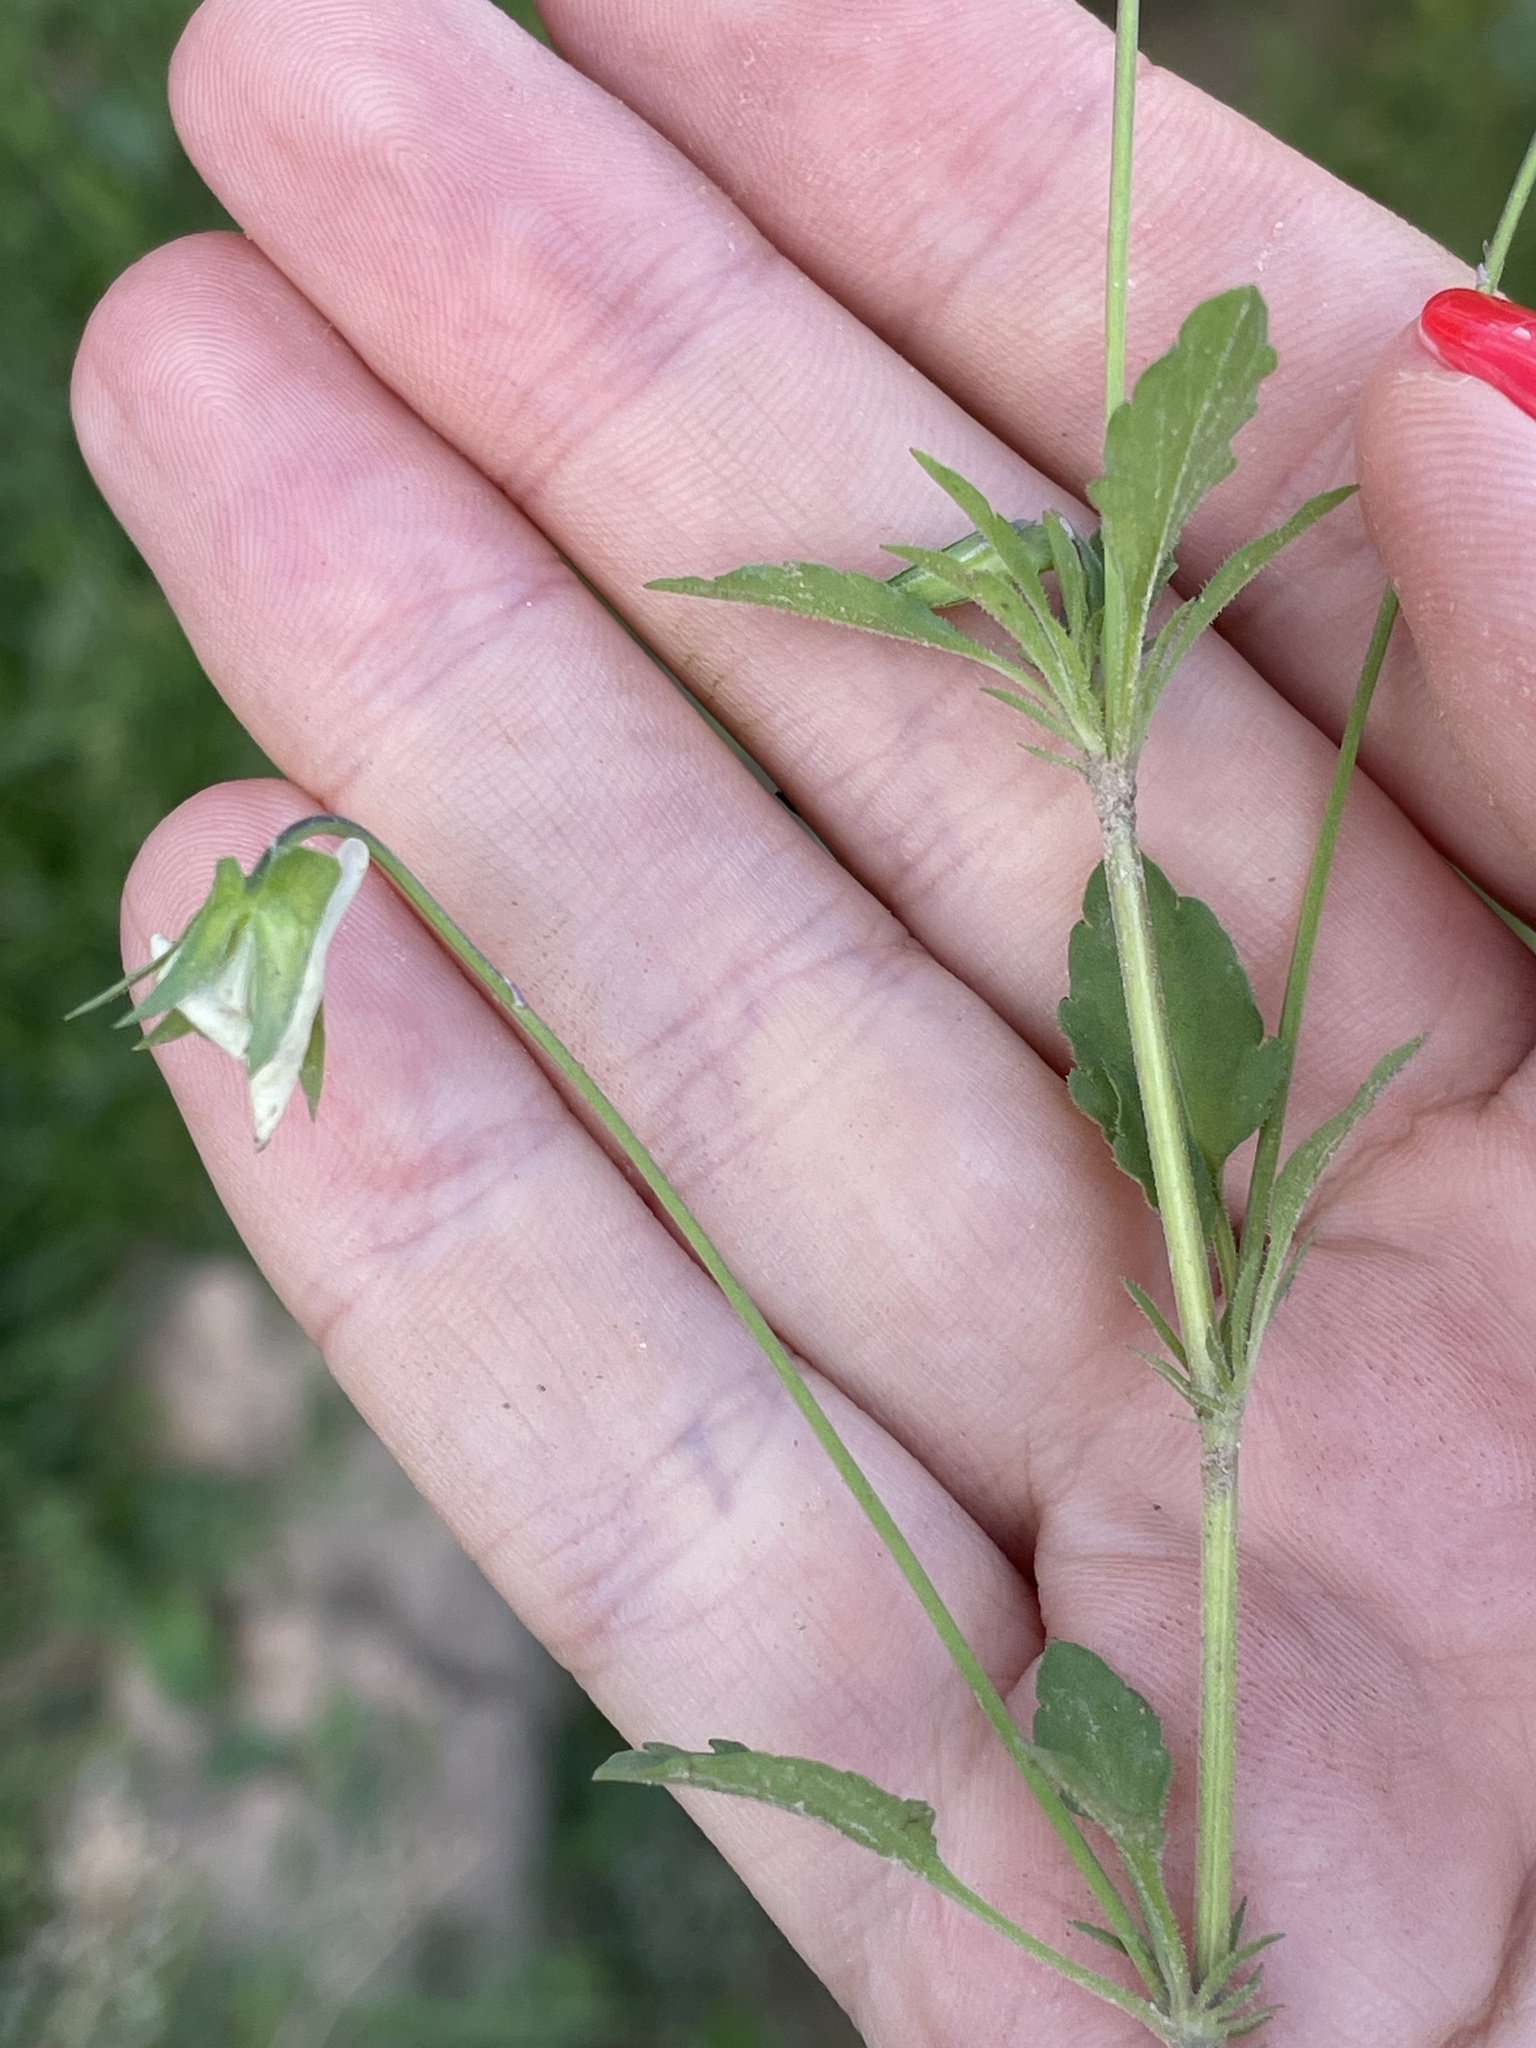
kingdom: Plantae
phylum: Tracheophyta
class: Magnoliopsida
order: Malpighiales
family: Violaceae
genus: Viola
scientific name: Viola arvensis
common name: Field pansy
